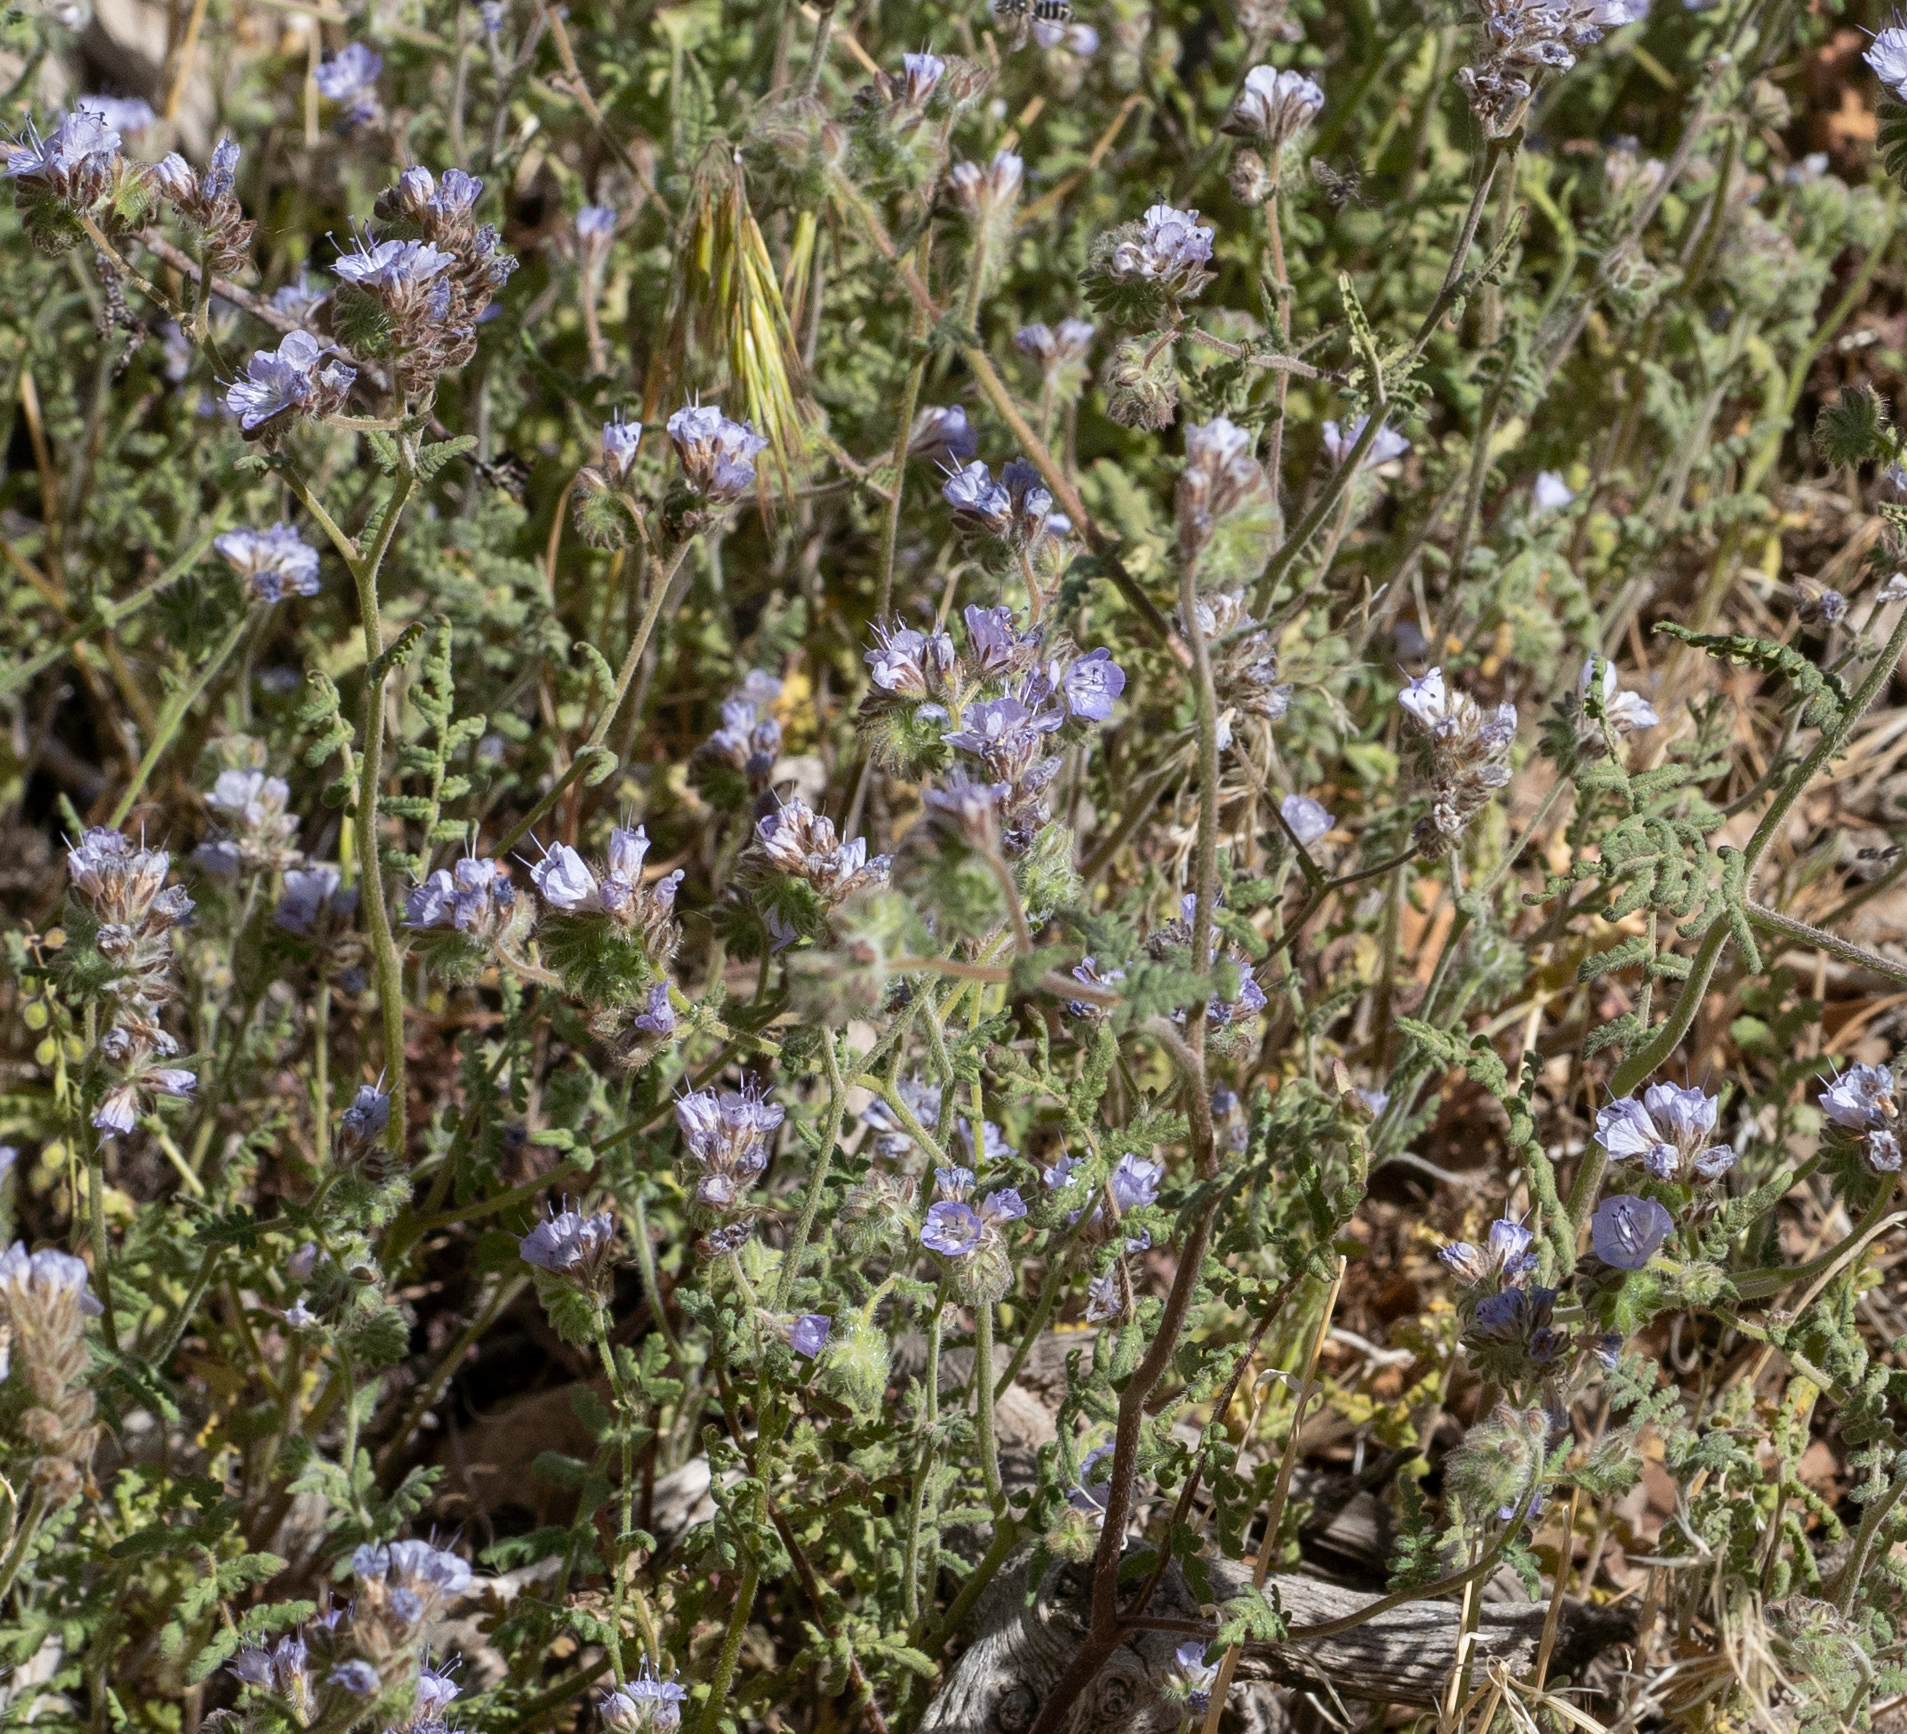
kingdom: Plantae
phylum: Tracheophyta
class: Magnoliopsida
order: Boraginales
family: Hydrophyllaceae
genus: Phacelia
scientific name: Phacelia distans
